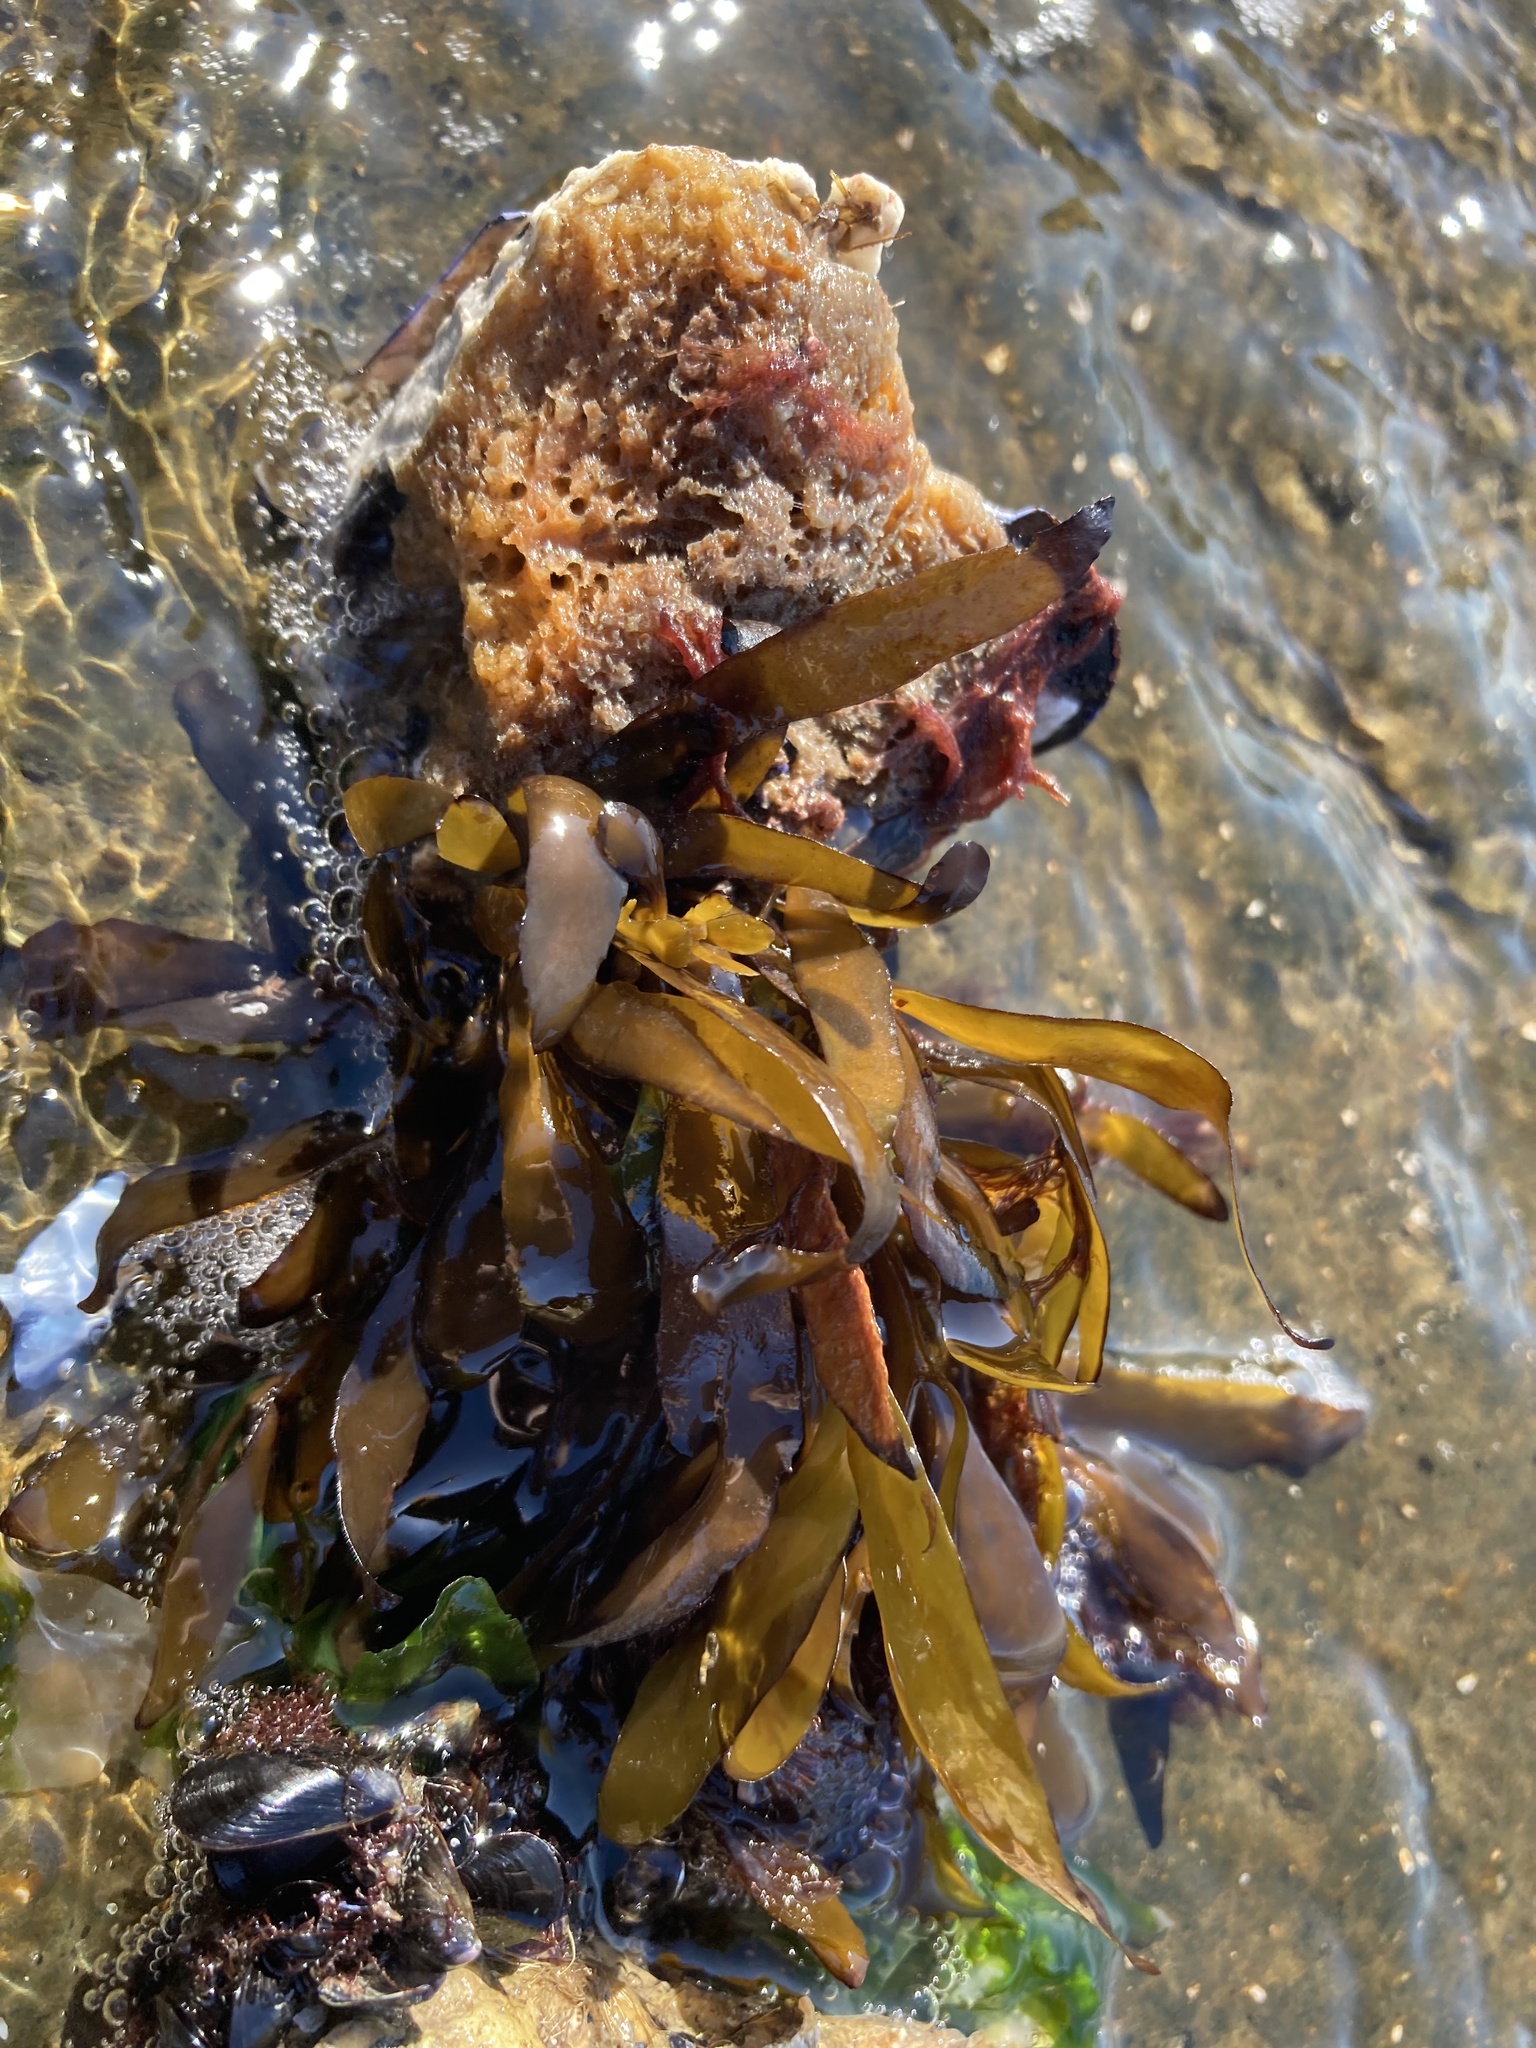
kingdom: Chromista
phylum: Ochrophyta
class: Phaeophyceae
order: Fucales
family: Sargassaceae
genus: Sargassum
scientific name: Sargassum muticum
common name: Japweed
